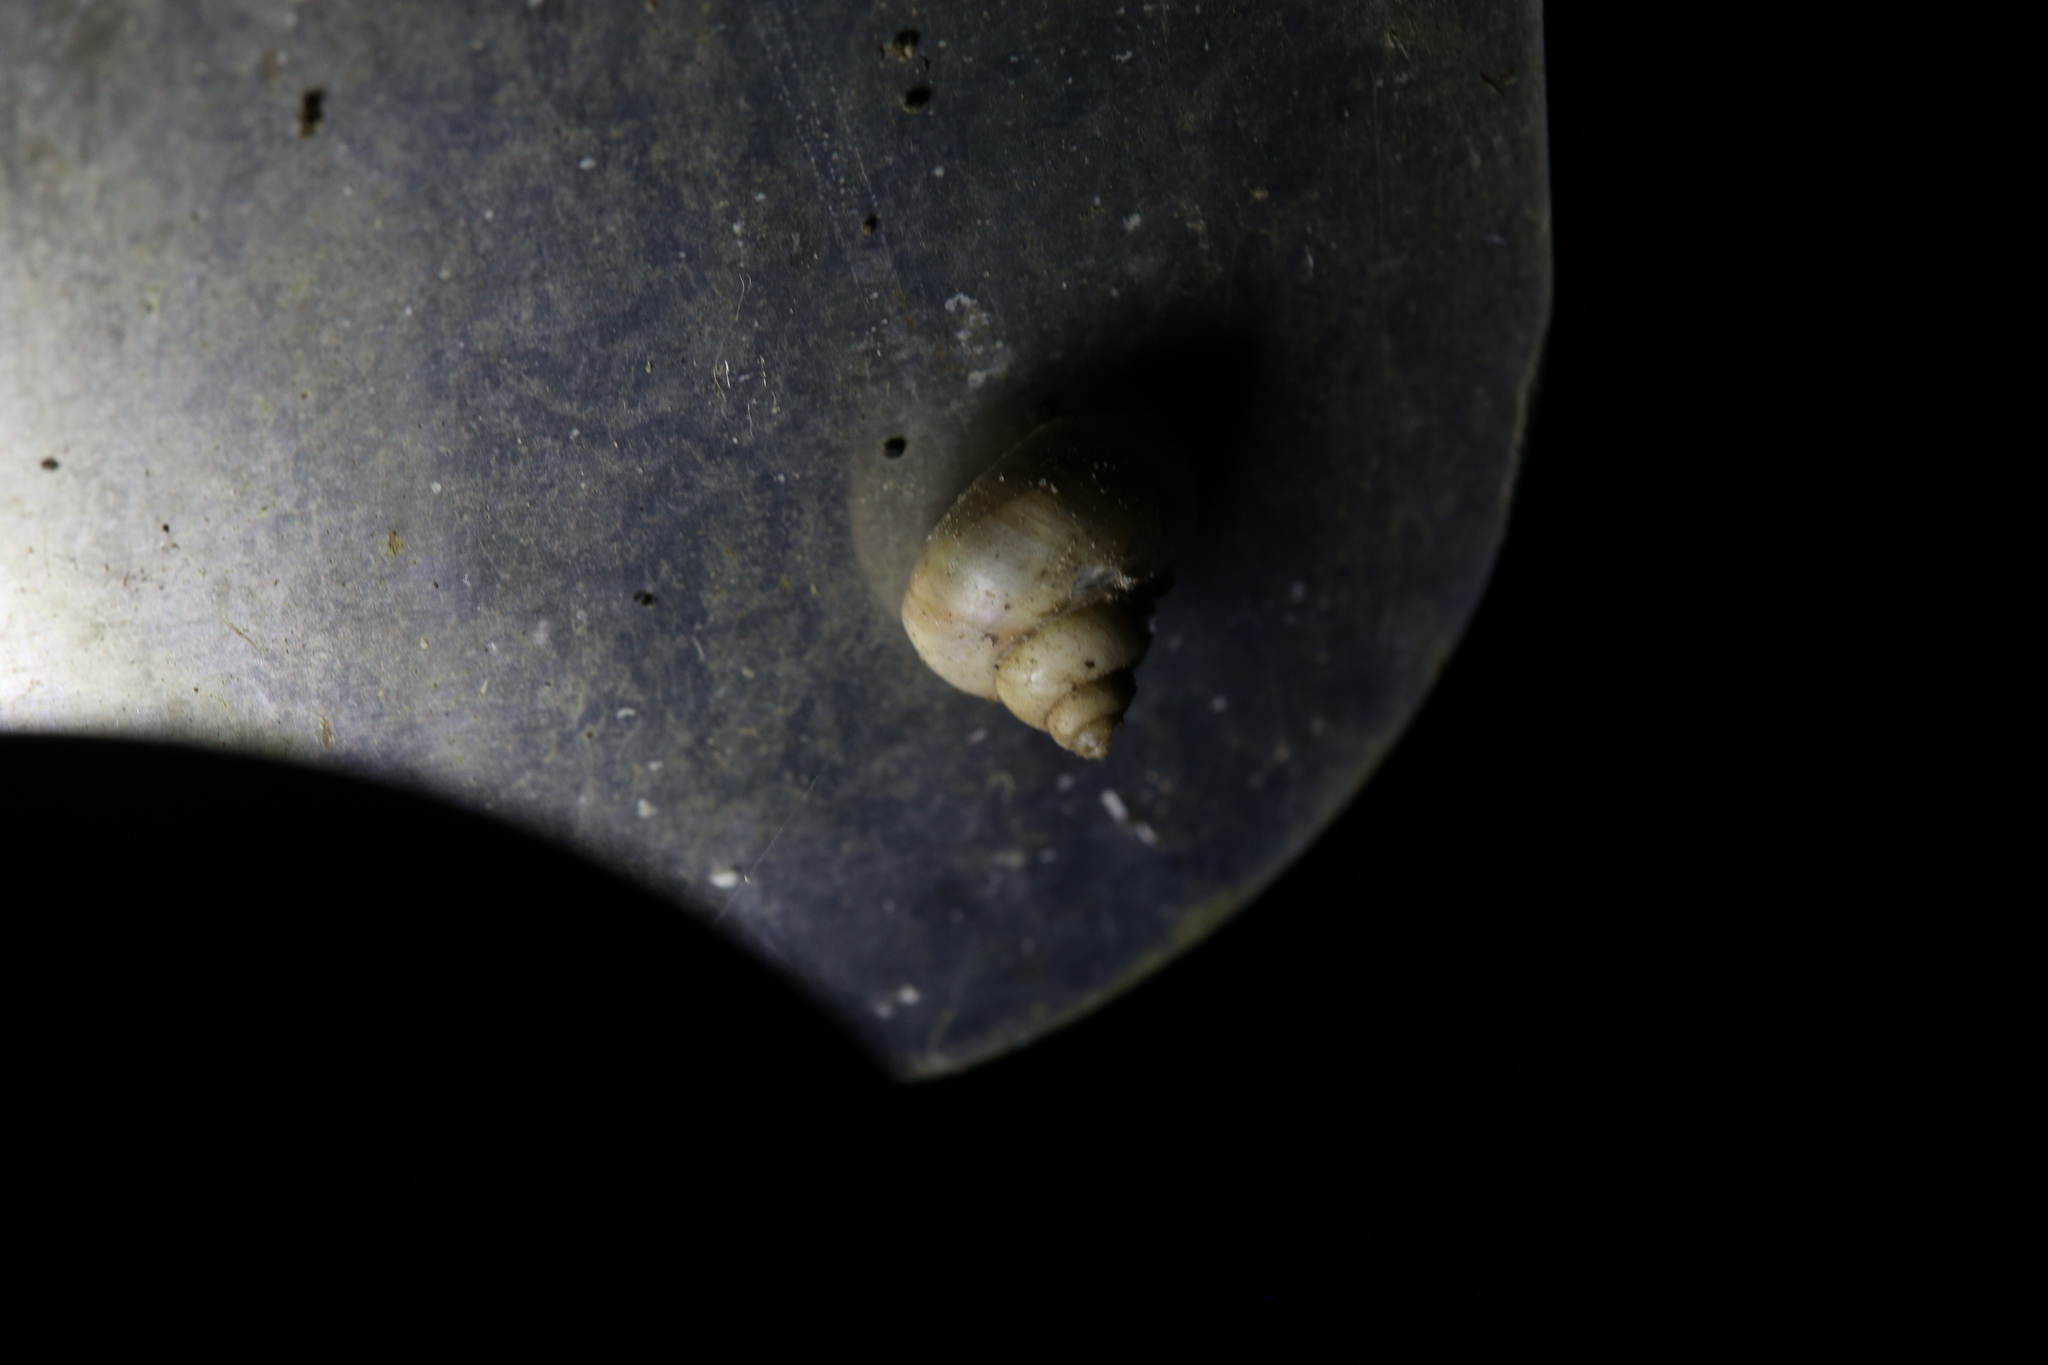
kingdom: Animalia
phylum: Mollusca
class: Gastropoda
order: Architaenioglossa
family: Cyclophoridae
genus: Leptopoma
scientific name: Leptopoma perlucidum
